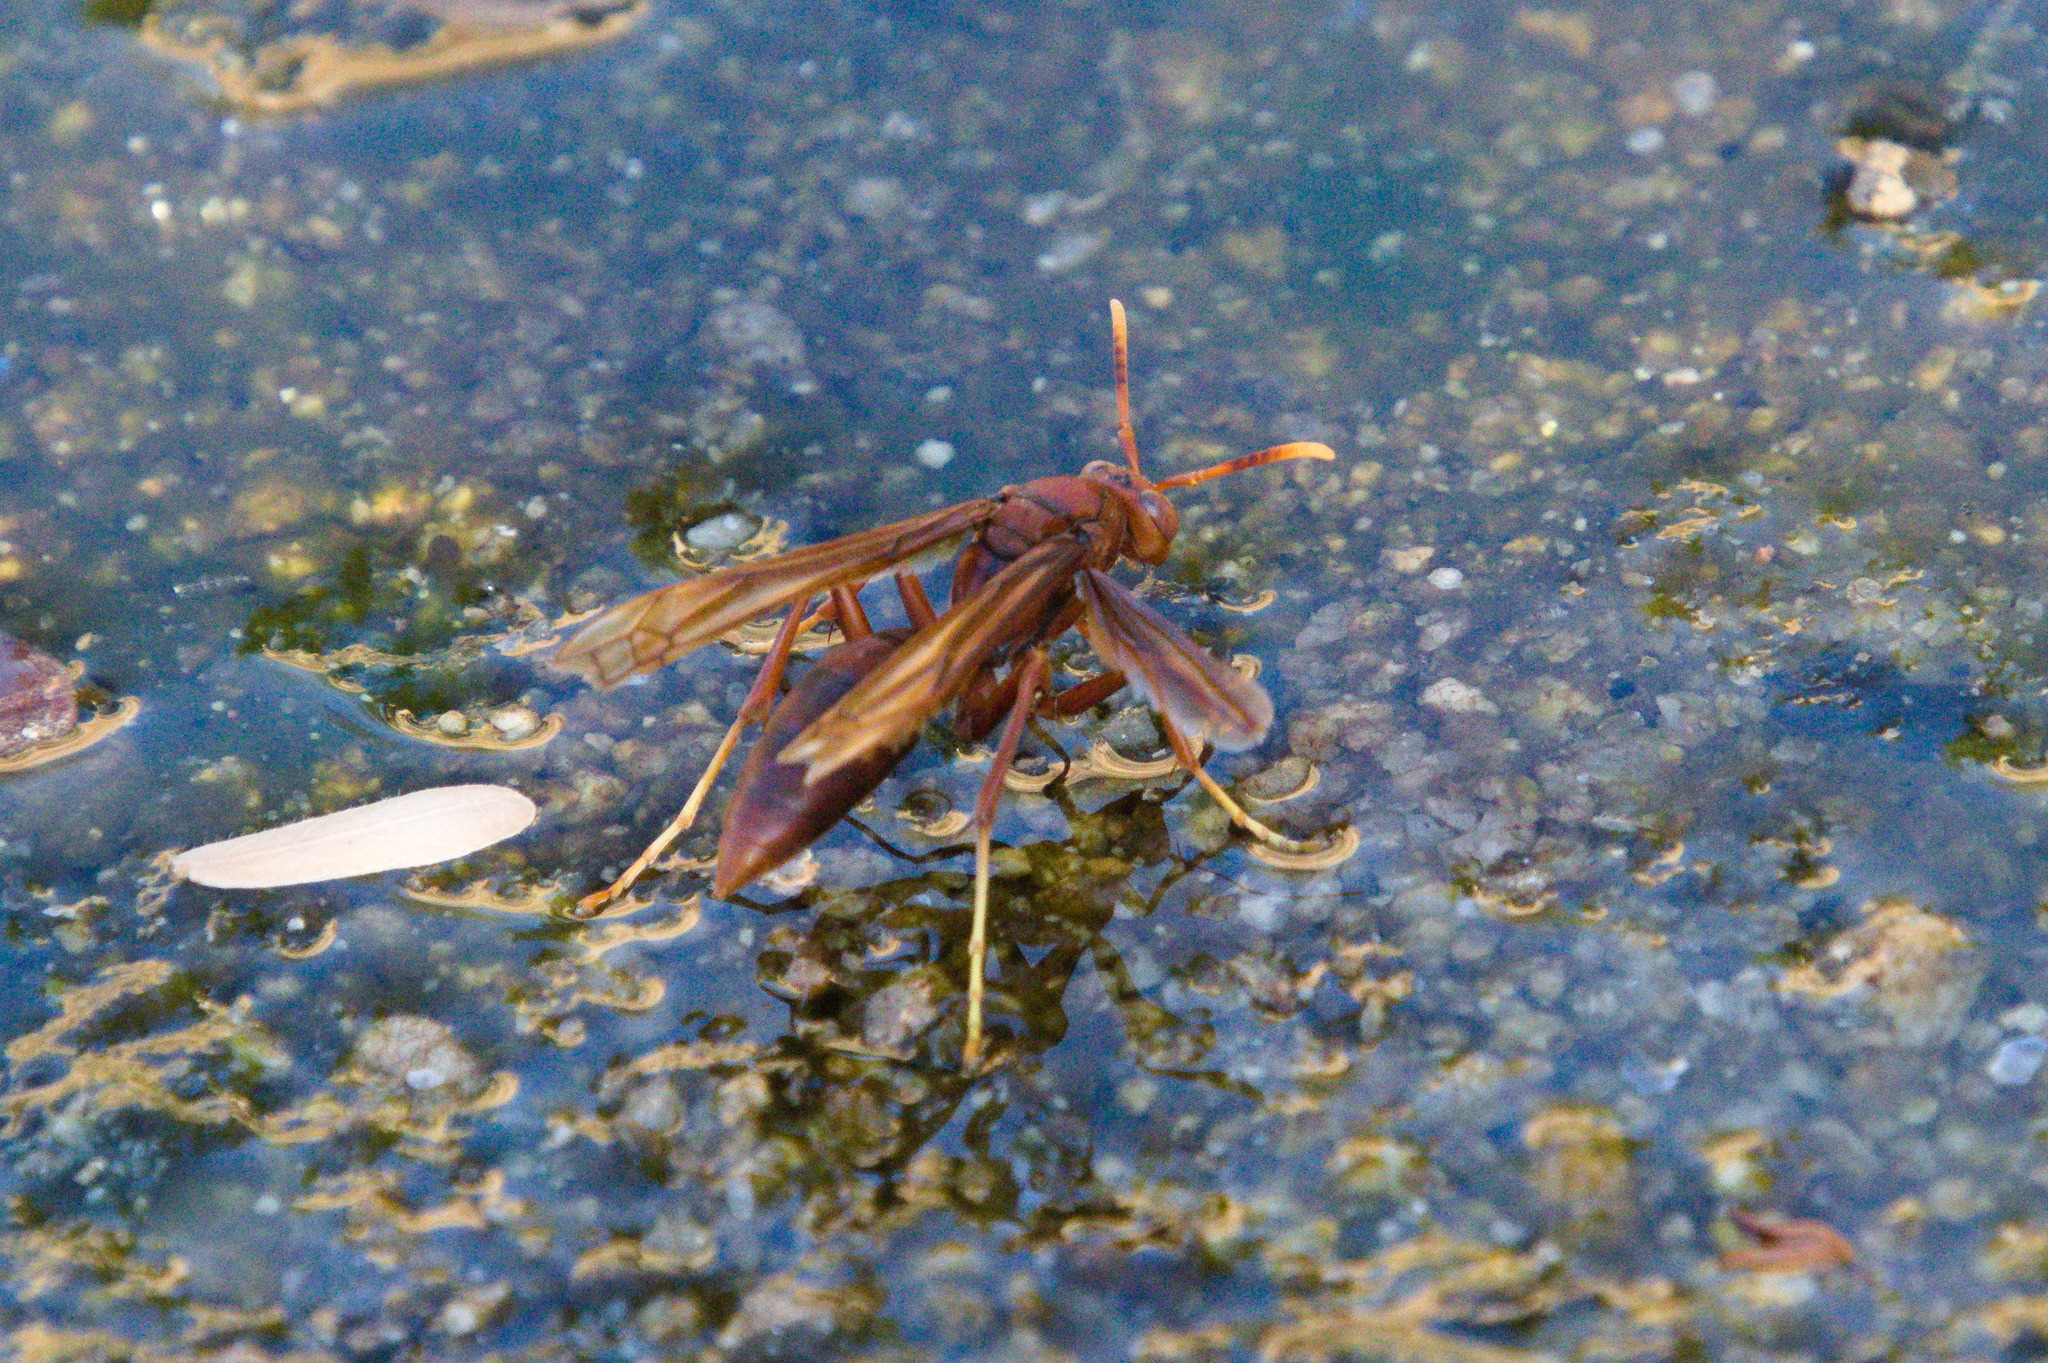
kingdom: Animalia
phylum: Arthropoda
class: Insecta
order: Hymenoptera
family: Eumenidae
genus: Polistes
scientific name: Polistes major
